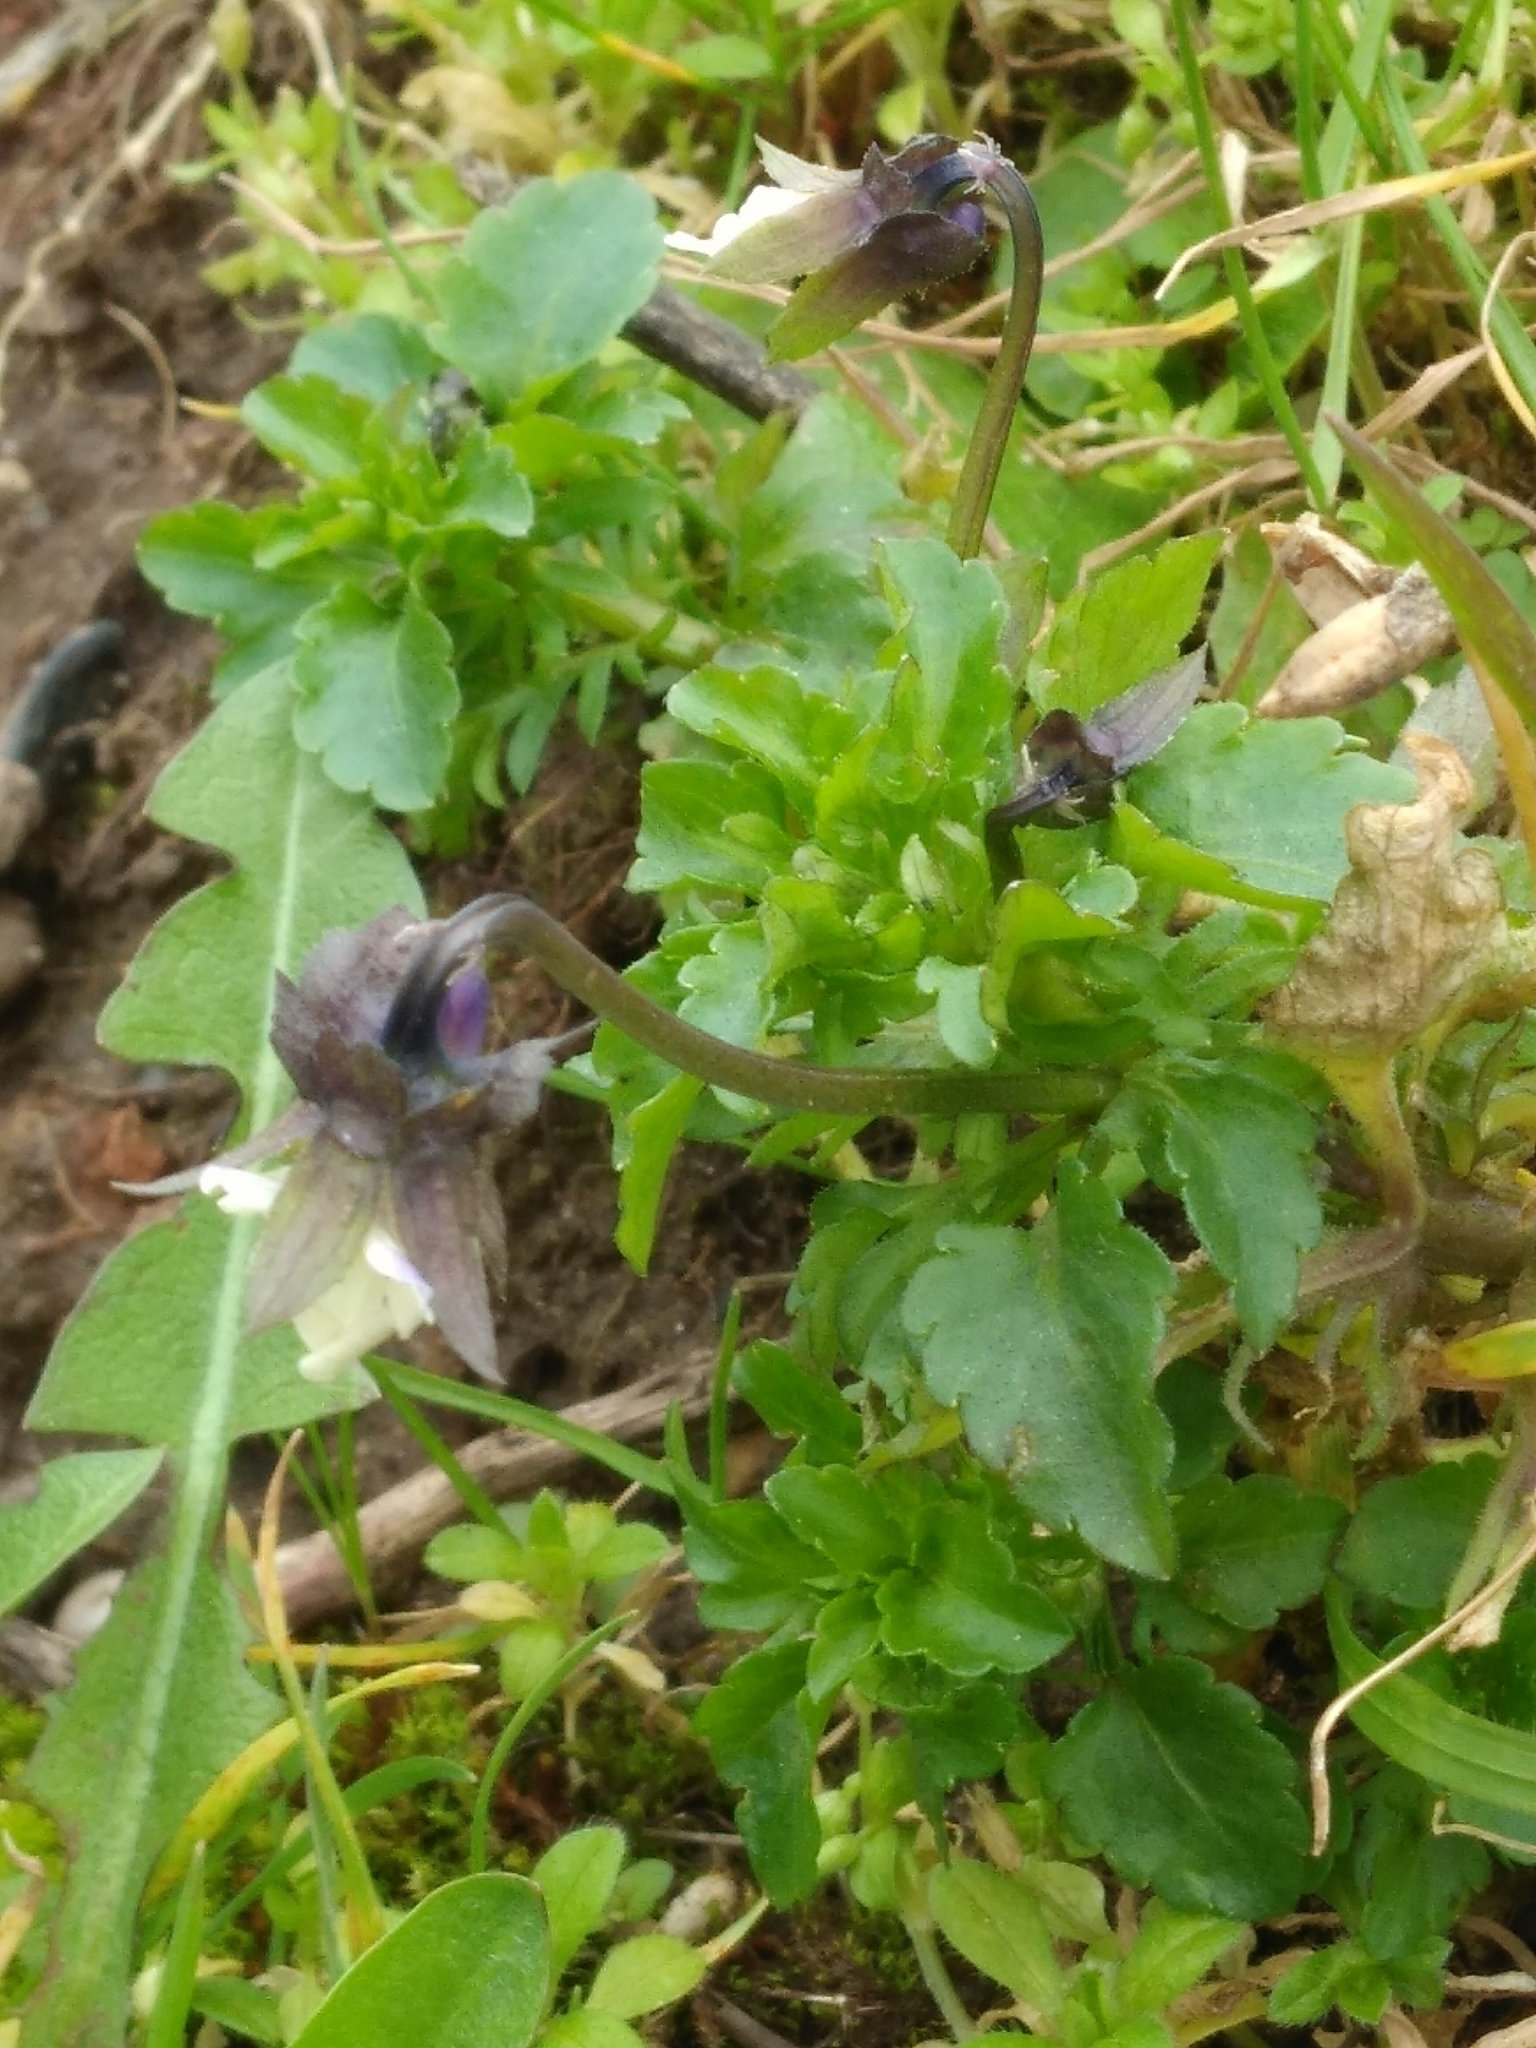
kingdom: Plantae
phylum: Tracheophyta
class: Magnoliopsida
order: Malpighiales
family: Violaceae
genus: Viola
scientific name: Viola arvensis
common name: Field pansy
